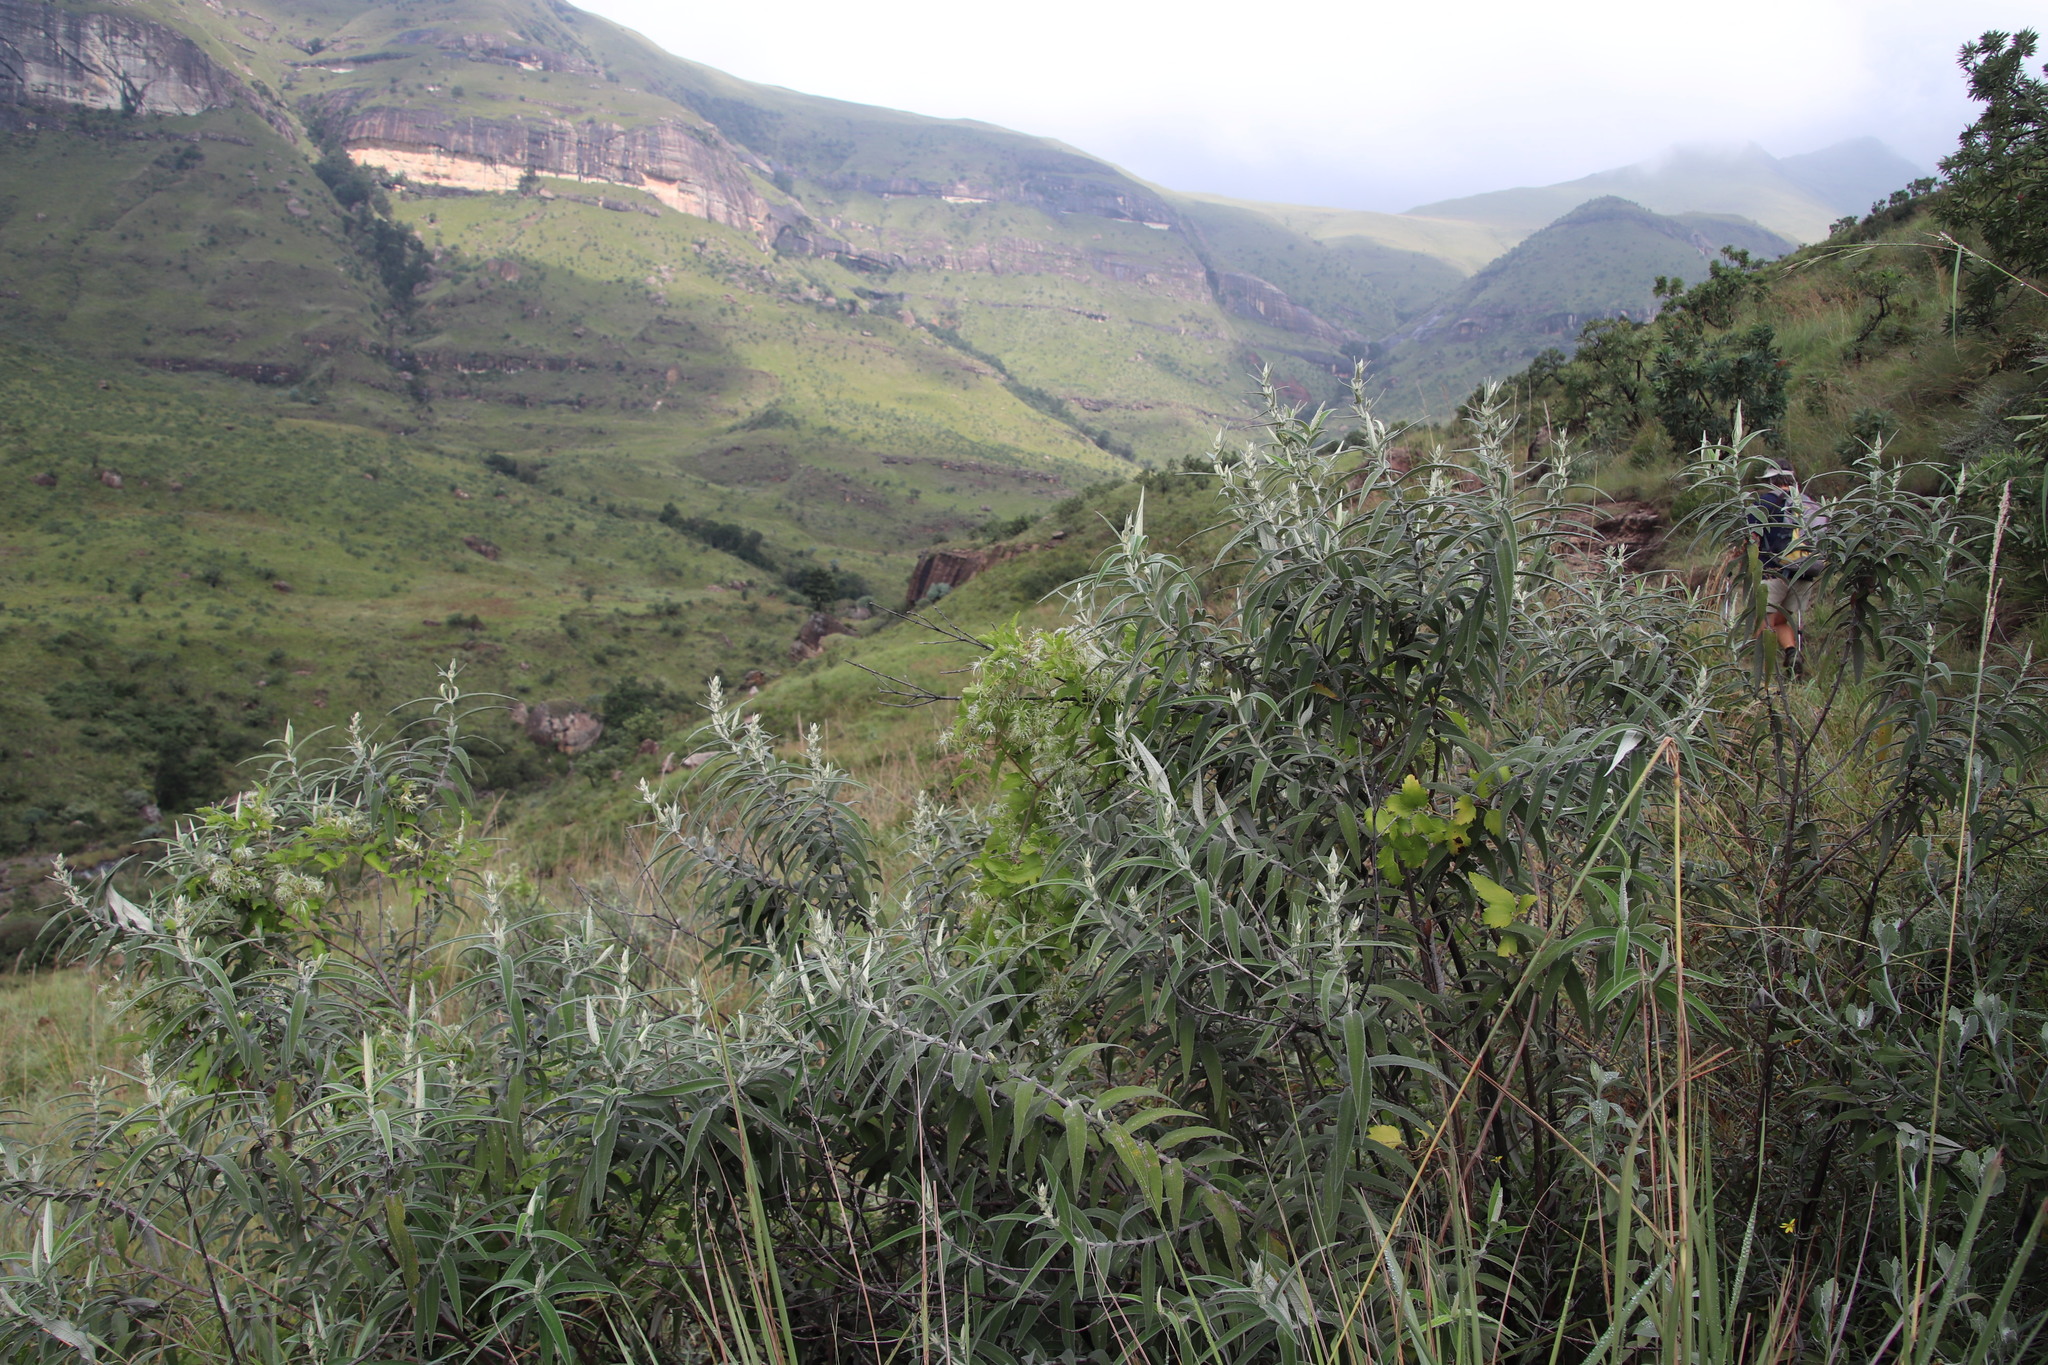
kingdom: Plantae
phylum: Tracheophyta
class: Magnoliopsida
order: Lamiales
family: Scrophulariaceae
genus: Buddleja
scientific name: Buddleja salviifolia
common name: Sagewood
